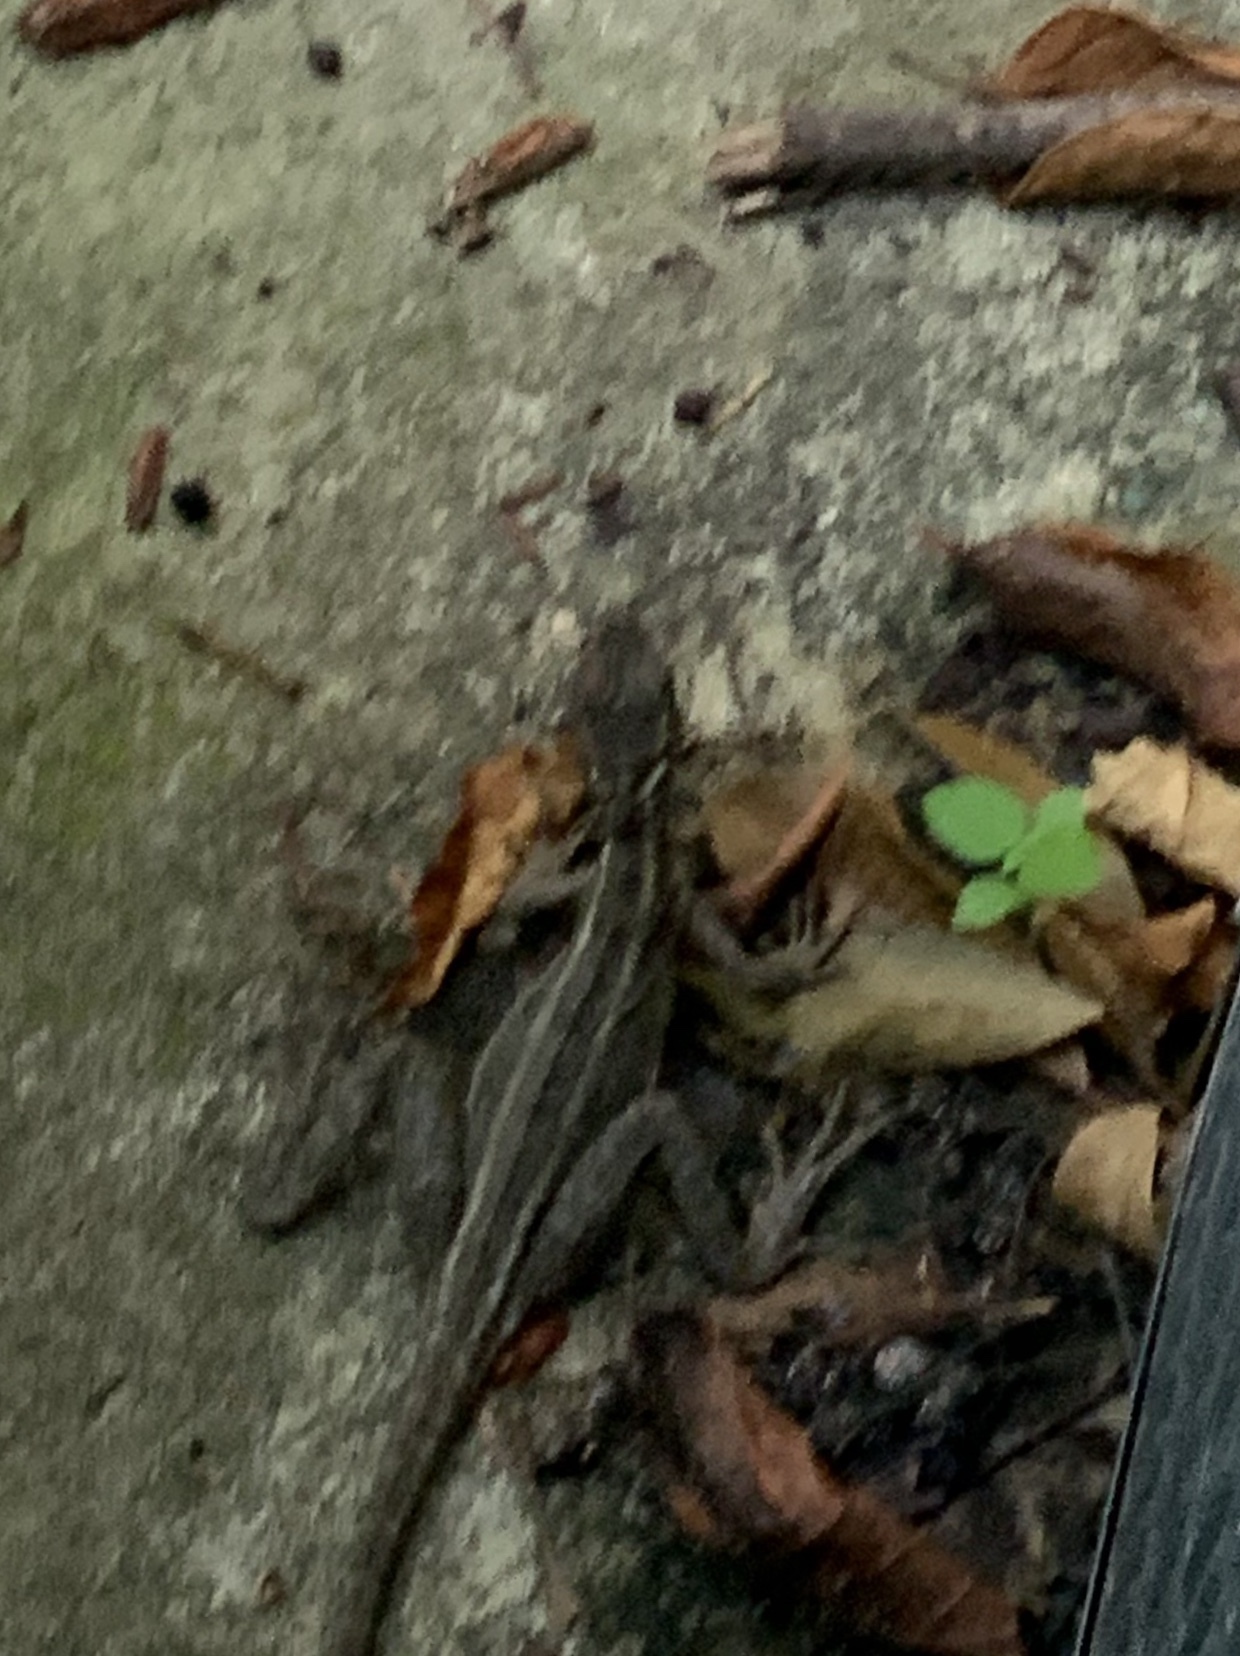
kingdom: Animalia
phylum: Chordata
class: Squamata
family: Corytophanidae
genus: Basiliscus
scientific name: Basiliscus vittatus
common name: Brown basilisk
